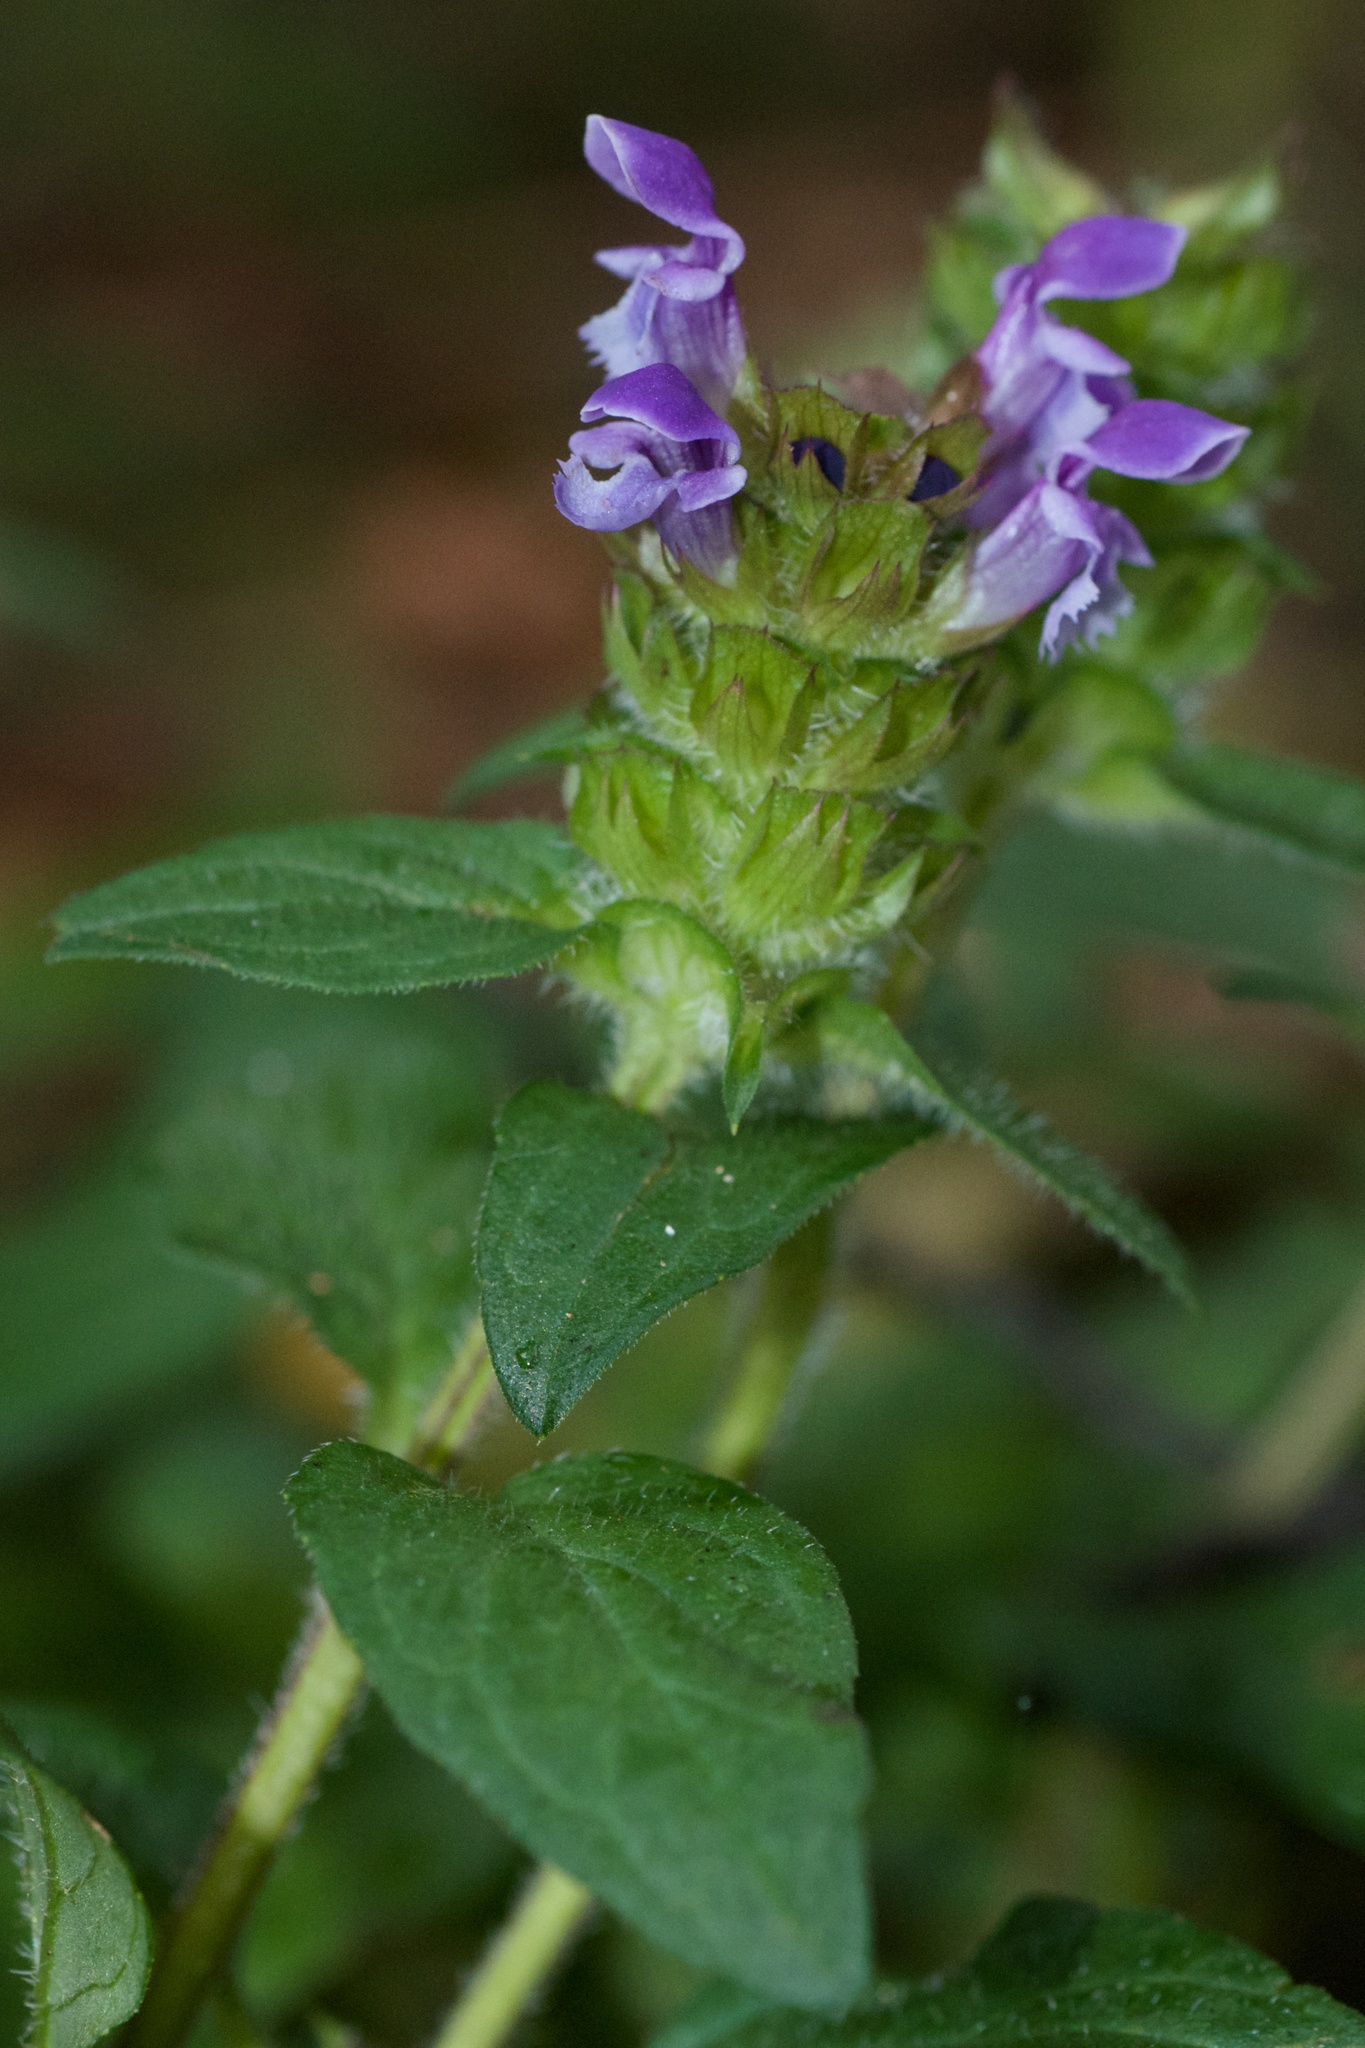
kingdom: Plantae
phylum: Tracheophyta
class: Magnoliopsida
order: Lamiales
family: Lamiaceae
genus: Prunella
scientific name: Prunella vulgaris
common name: Heal-all
